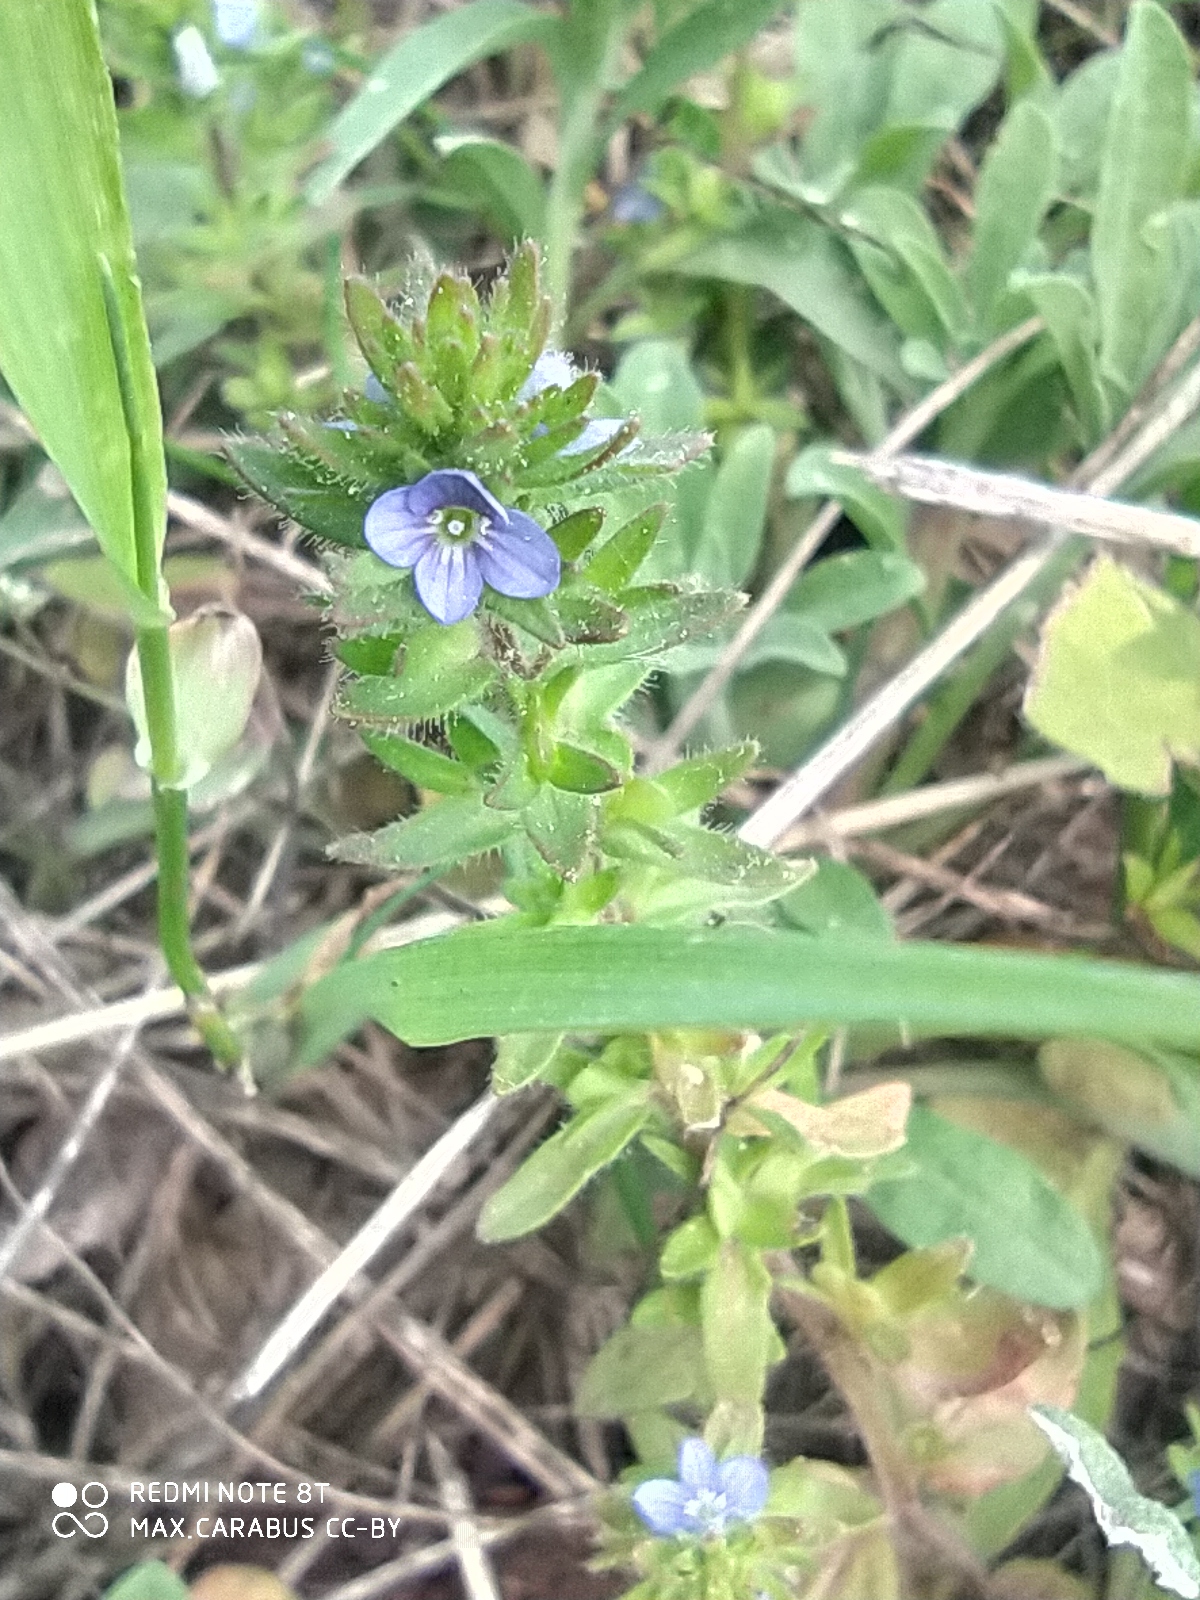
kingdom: Plantae
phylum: Tracheophyta
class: Magnoliopsida
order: Lamiales
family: Plantaginaceae
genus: Veronica
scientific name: Veronica arvensis
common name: Corn speedwell
